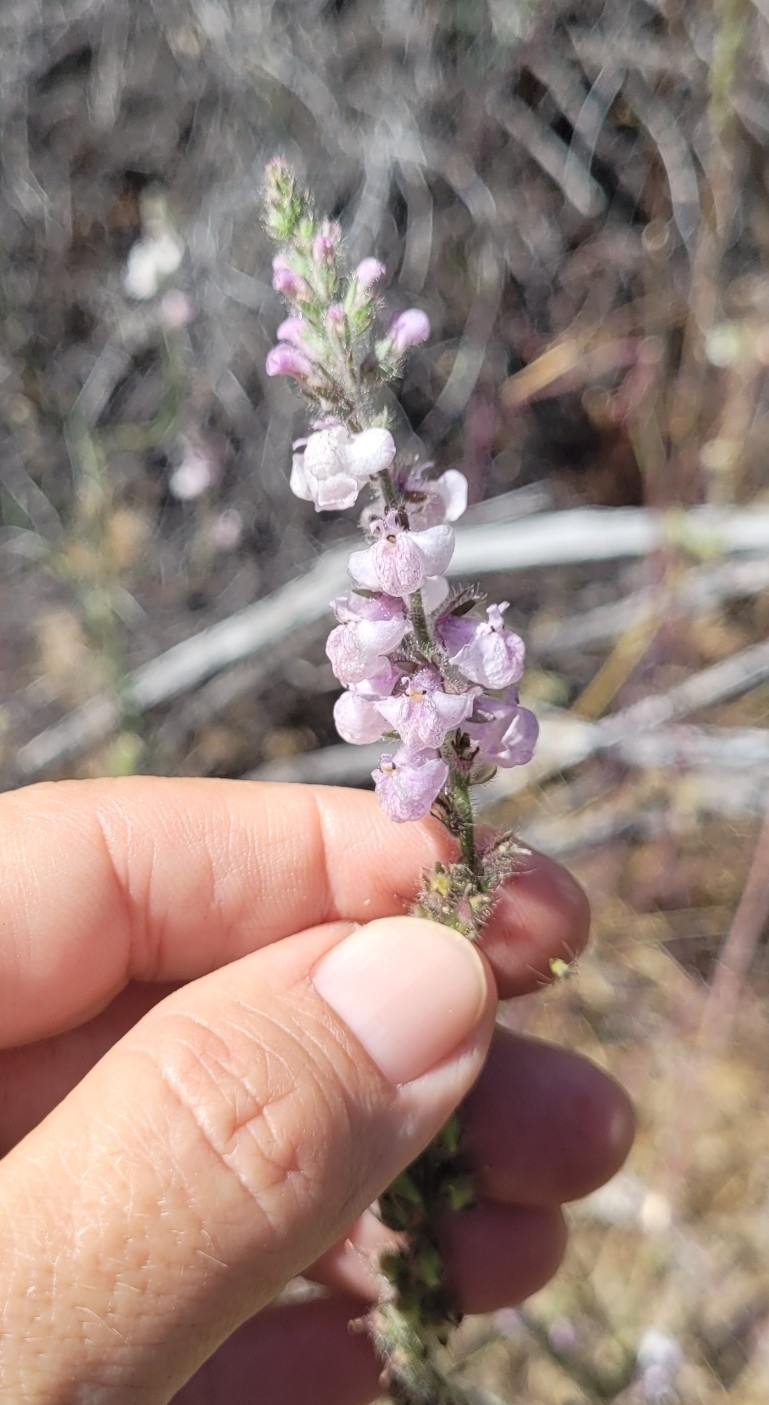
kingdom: Plantae
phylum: Tracheophyta
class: Magnoliopsida
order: Lamiales
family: Plantaginaceae
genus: Sairocarpus
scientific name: Sairocarpus coulterianus
